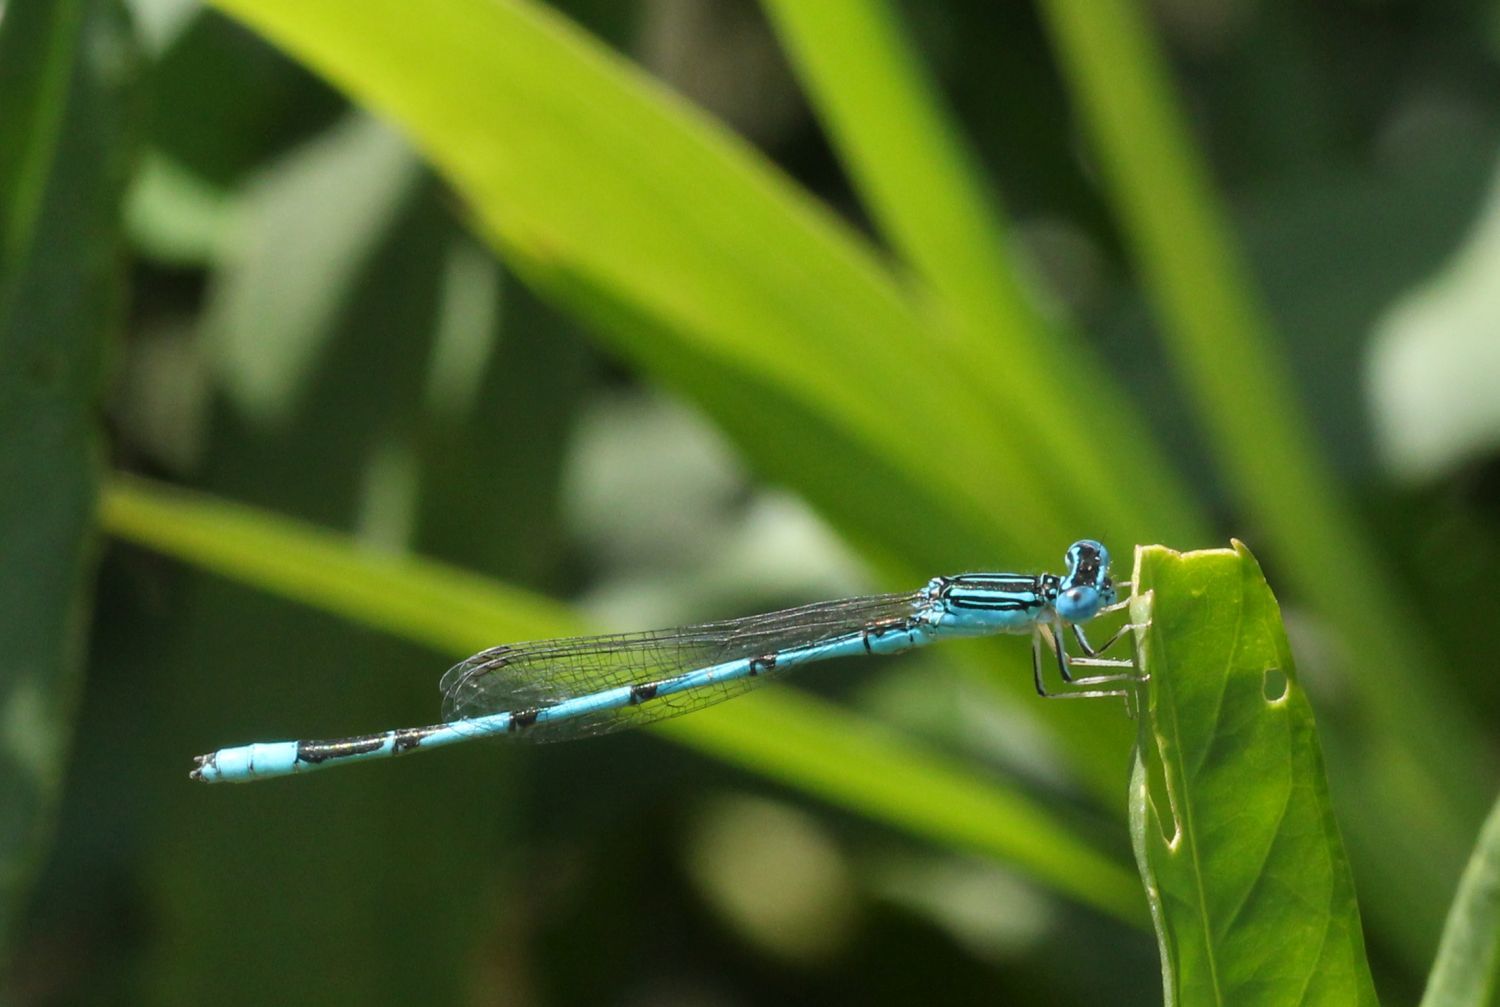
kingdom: Animalia
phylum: Arthropoda
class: Insecta
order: Odonata
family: Coenagrionidae
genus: Enallagma
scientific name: Enallagma basidens
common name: Double-striped bluet
